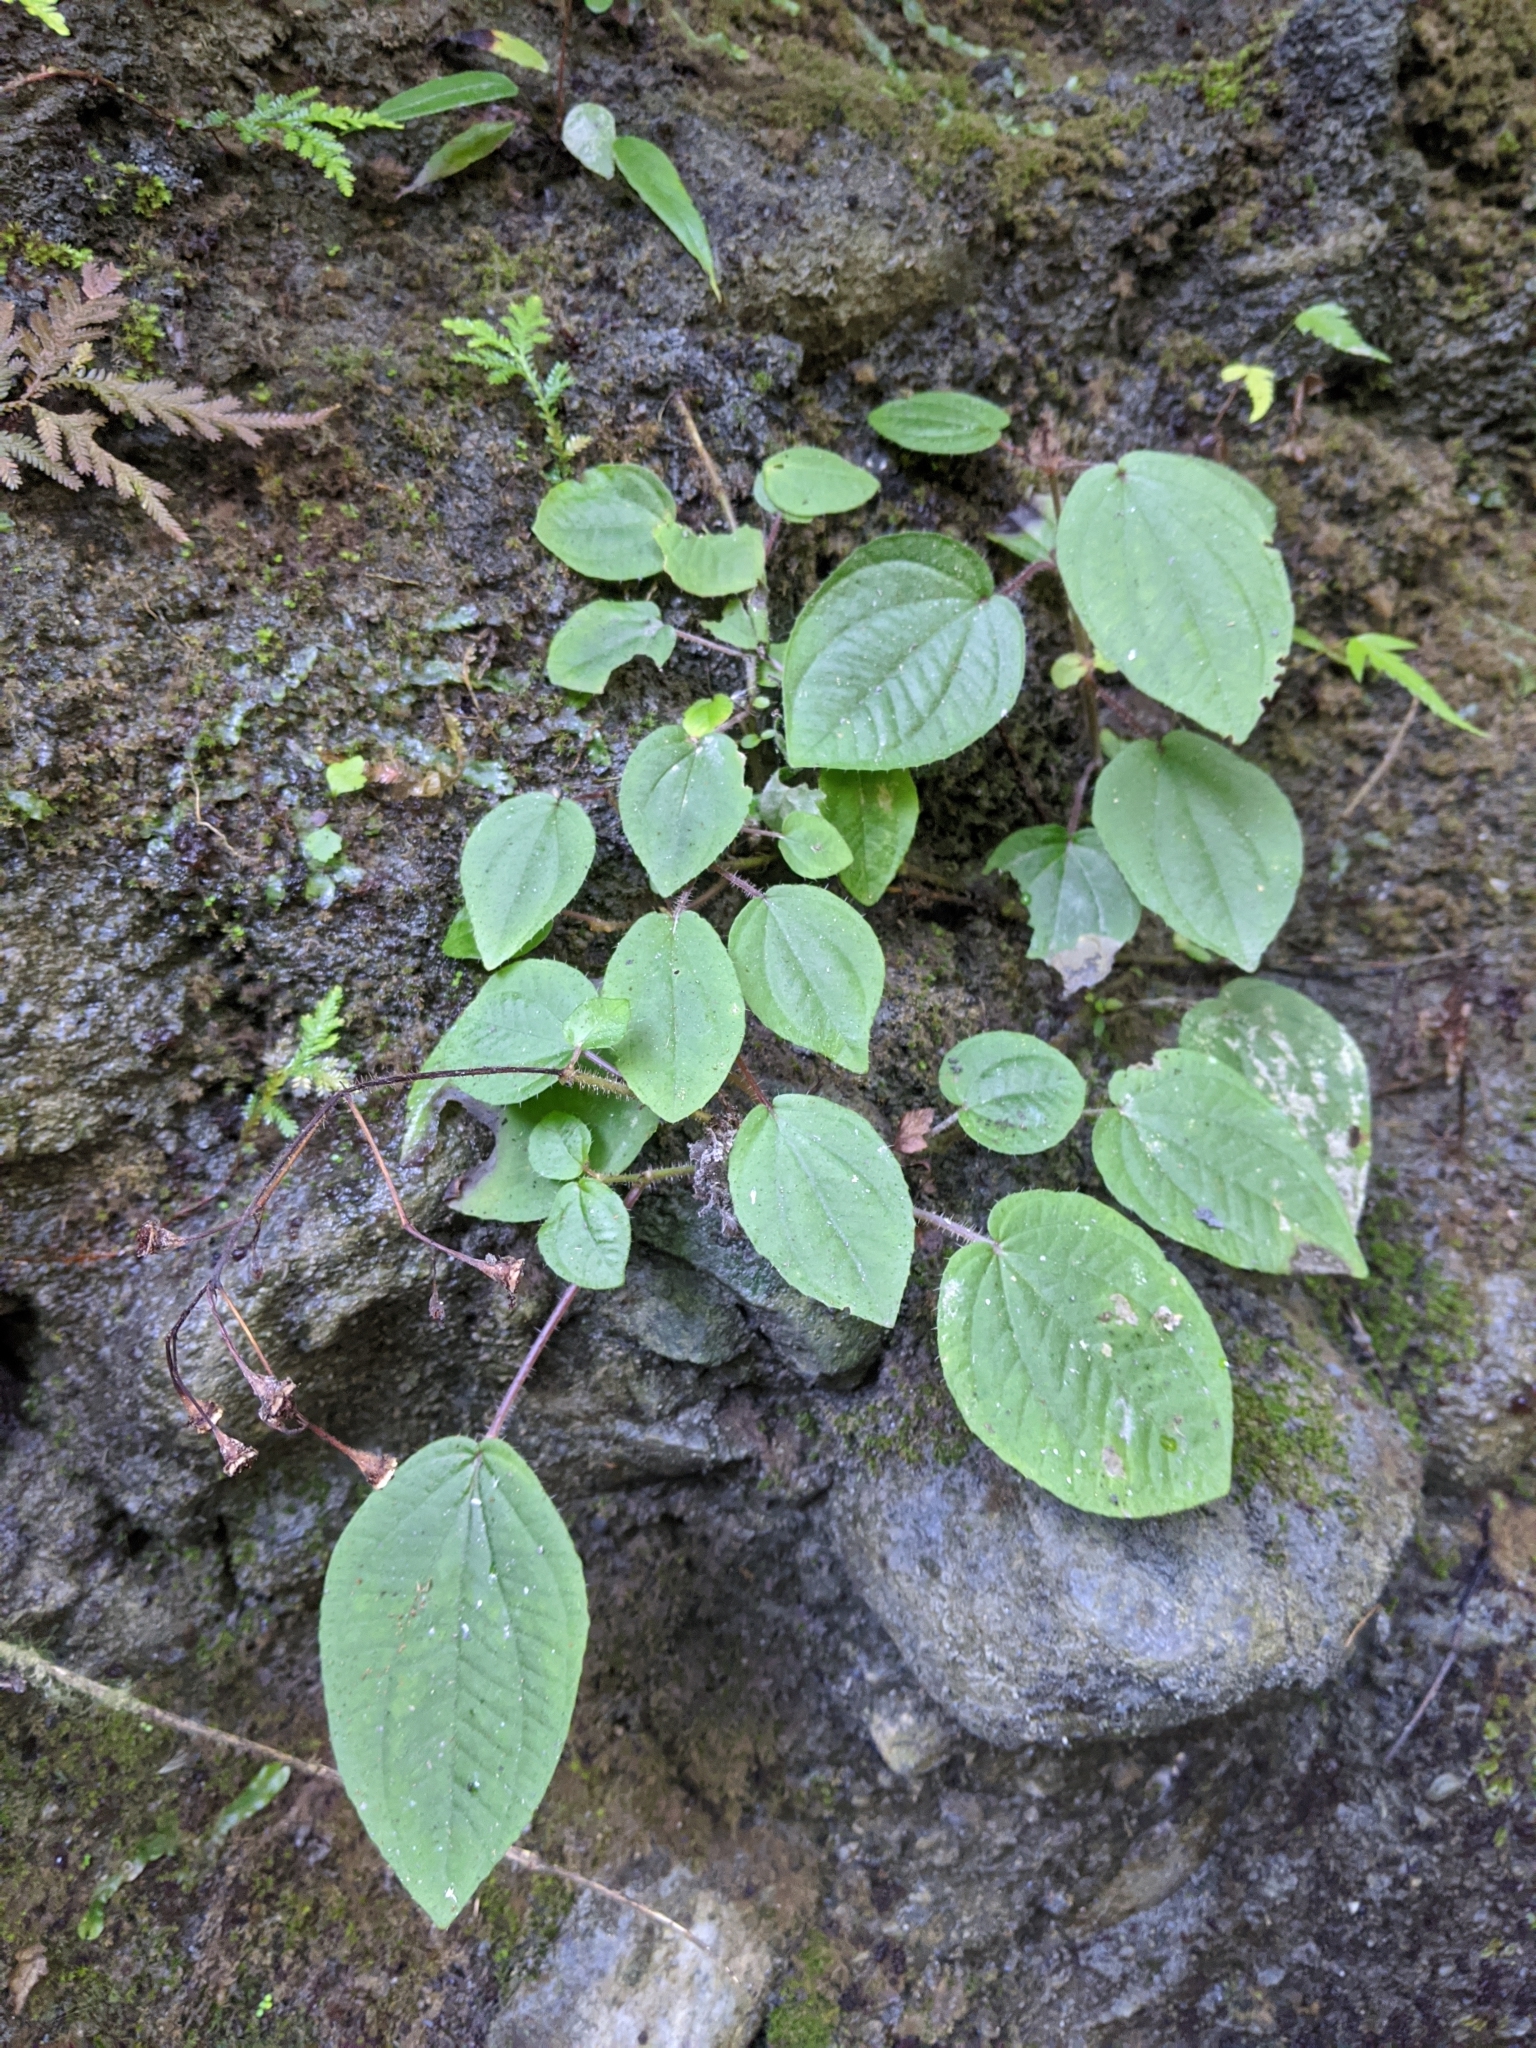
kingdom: Plantae
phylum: Tracheophyta
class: Magnoliopsida
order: Myrtales
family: Melastomataceae
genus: Bredia
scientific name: Bredia dulanica
